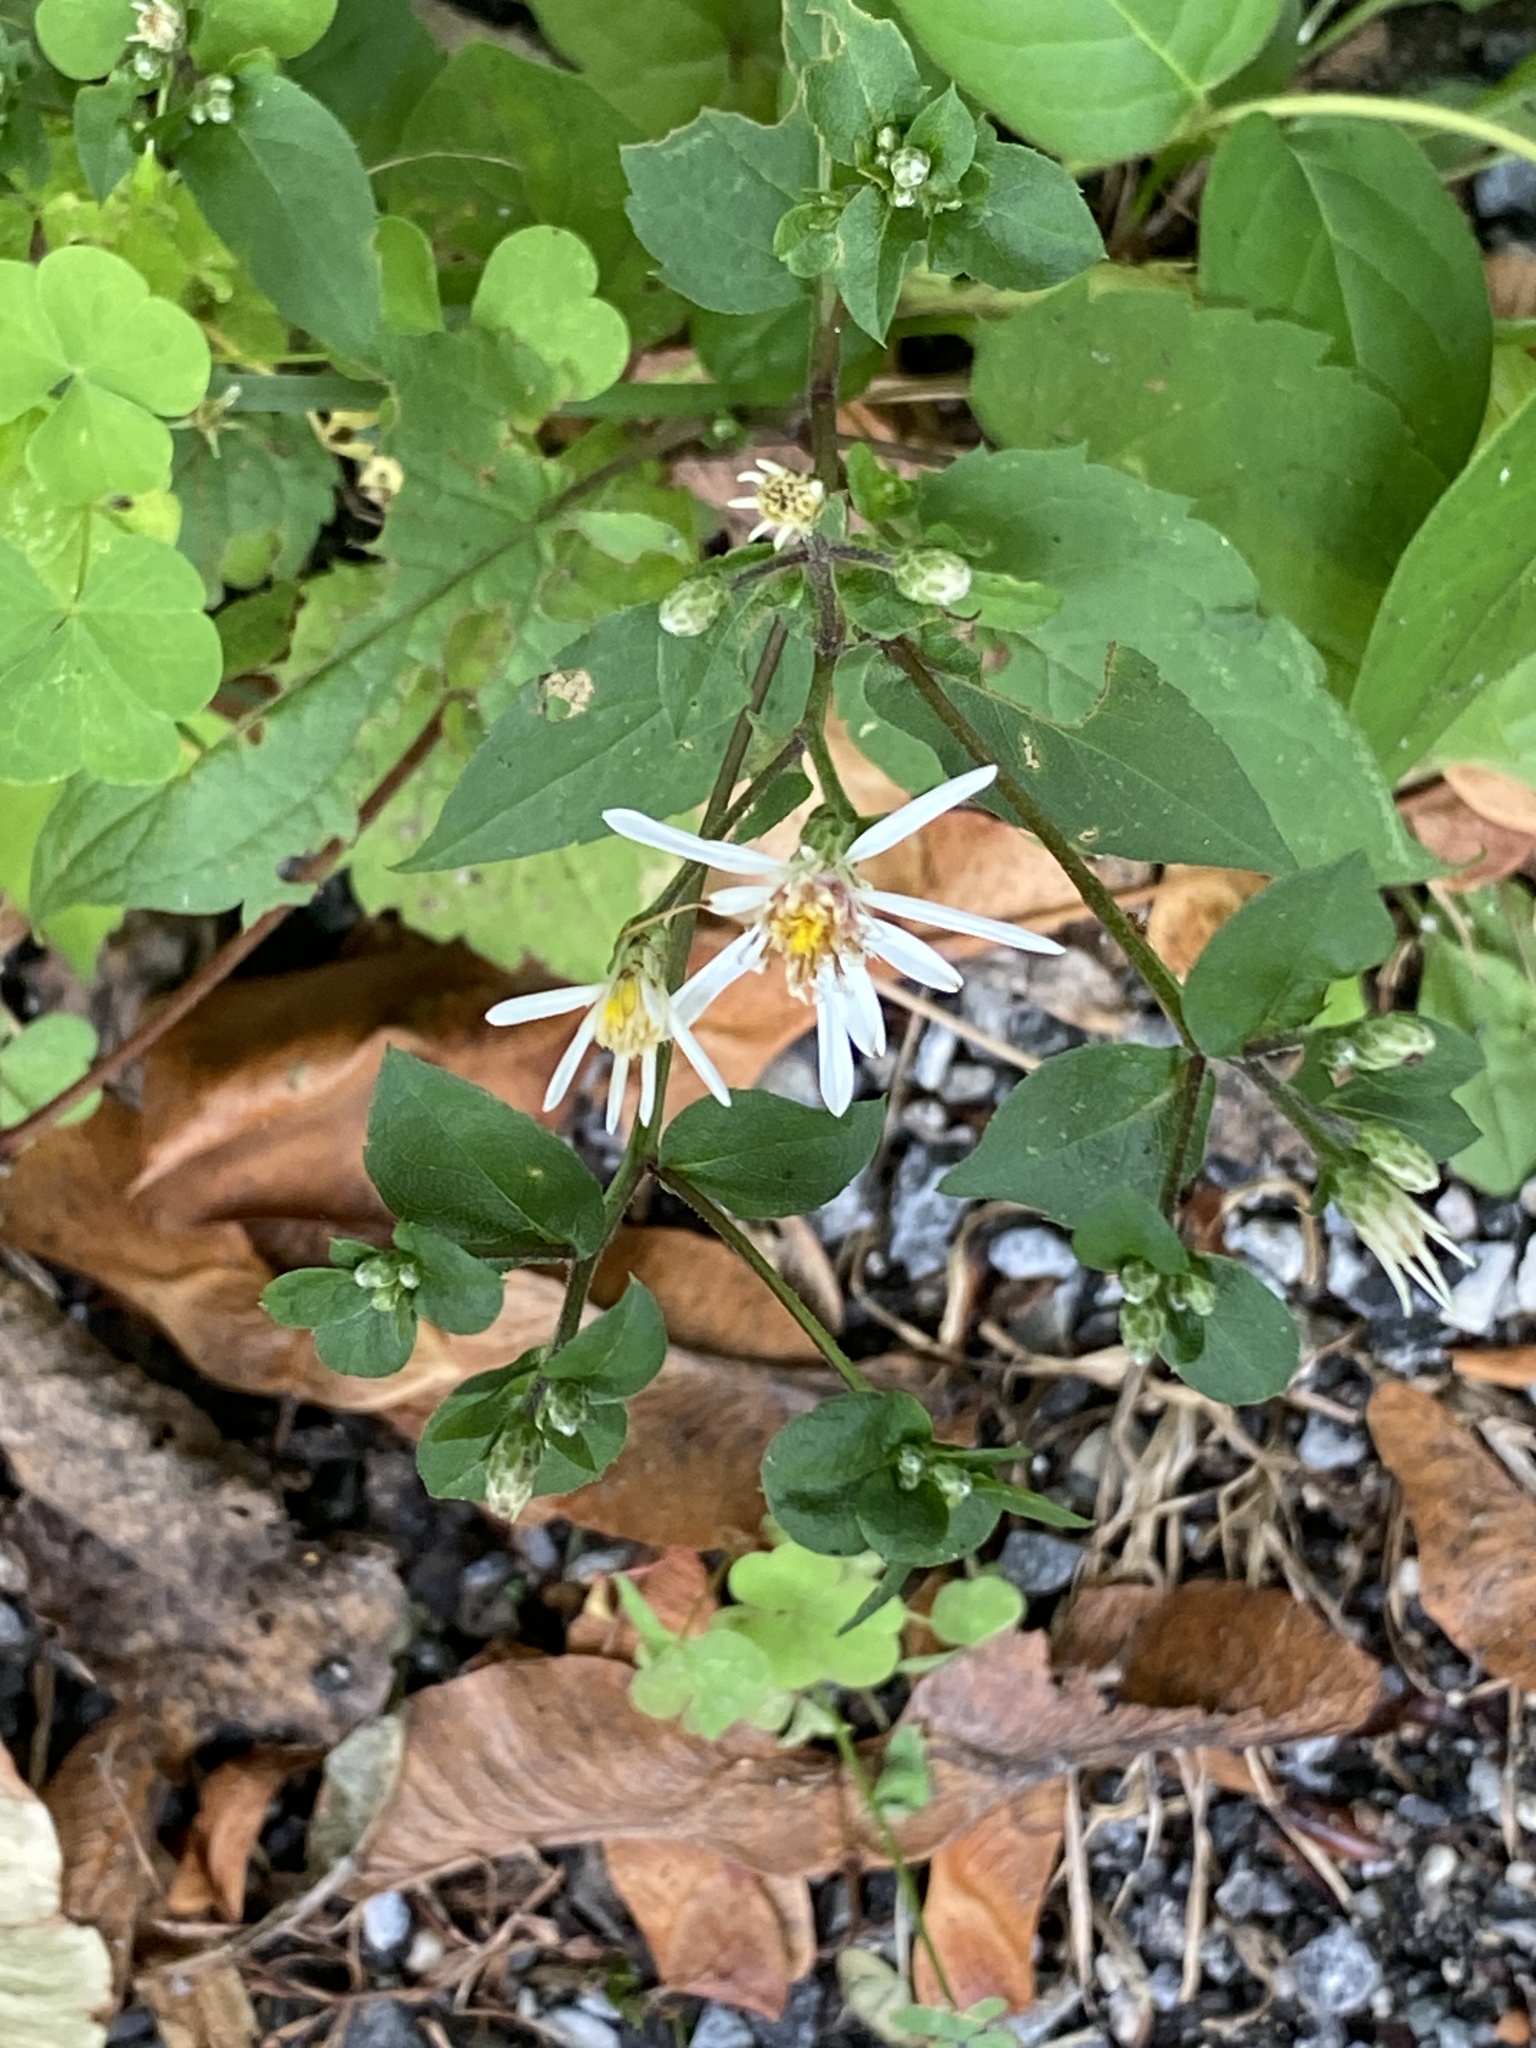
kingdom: Plantae
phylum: Tracheophyta
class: Magnoliopsida
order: Asterales
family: Asteraceae
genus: Eurybia
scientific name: Eurybia divaricata
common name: White wood aster
